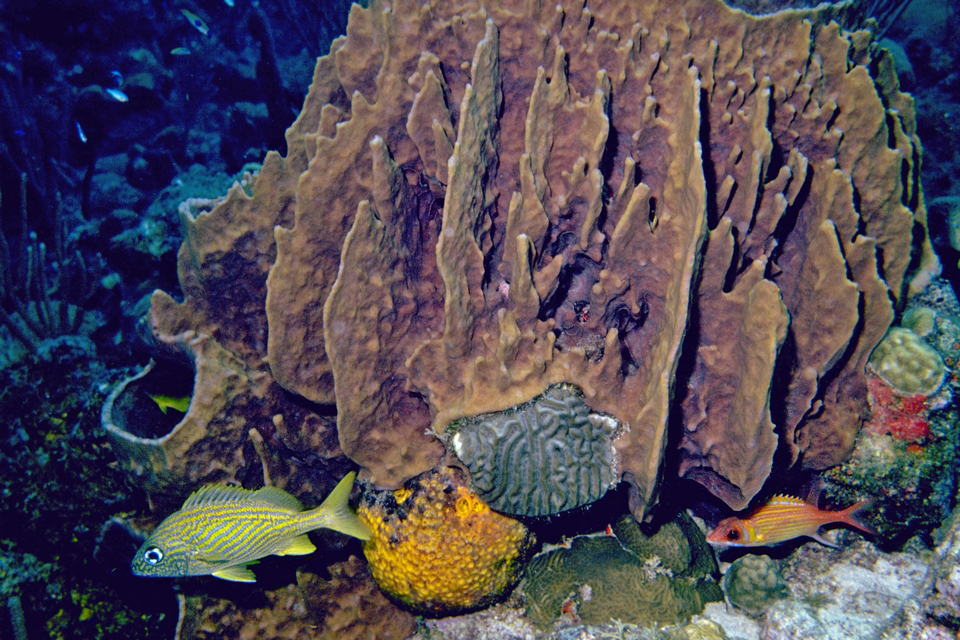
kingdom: Animalia
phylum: Chordata
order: Beryciformes
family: Holocentridae
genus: Neoniphon
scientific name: Neoniphon marianus
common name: Longjaw squirrelfish
